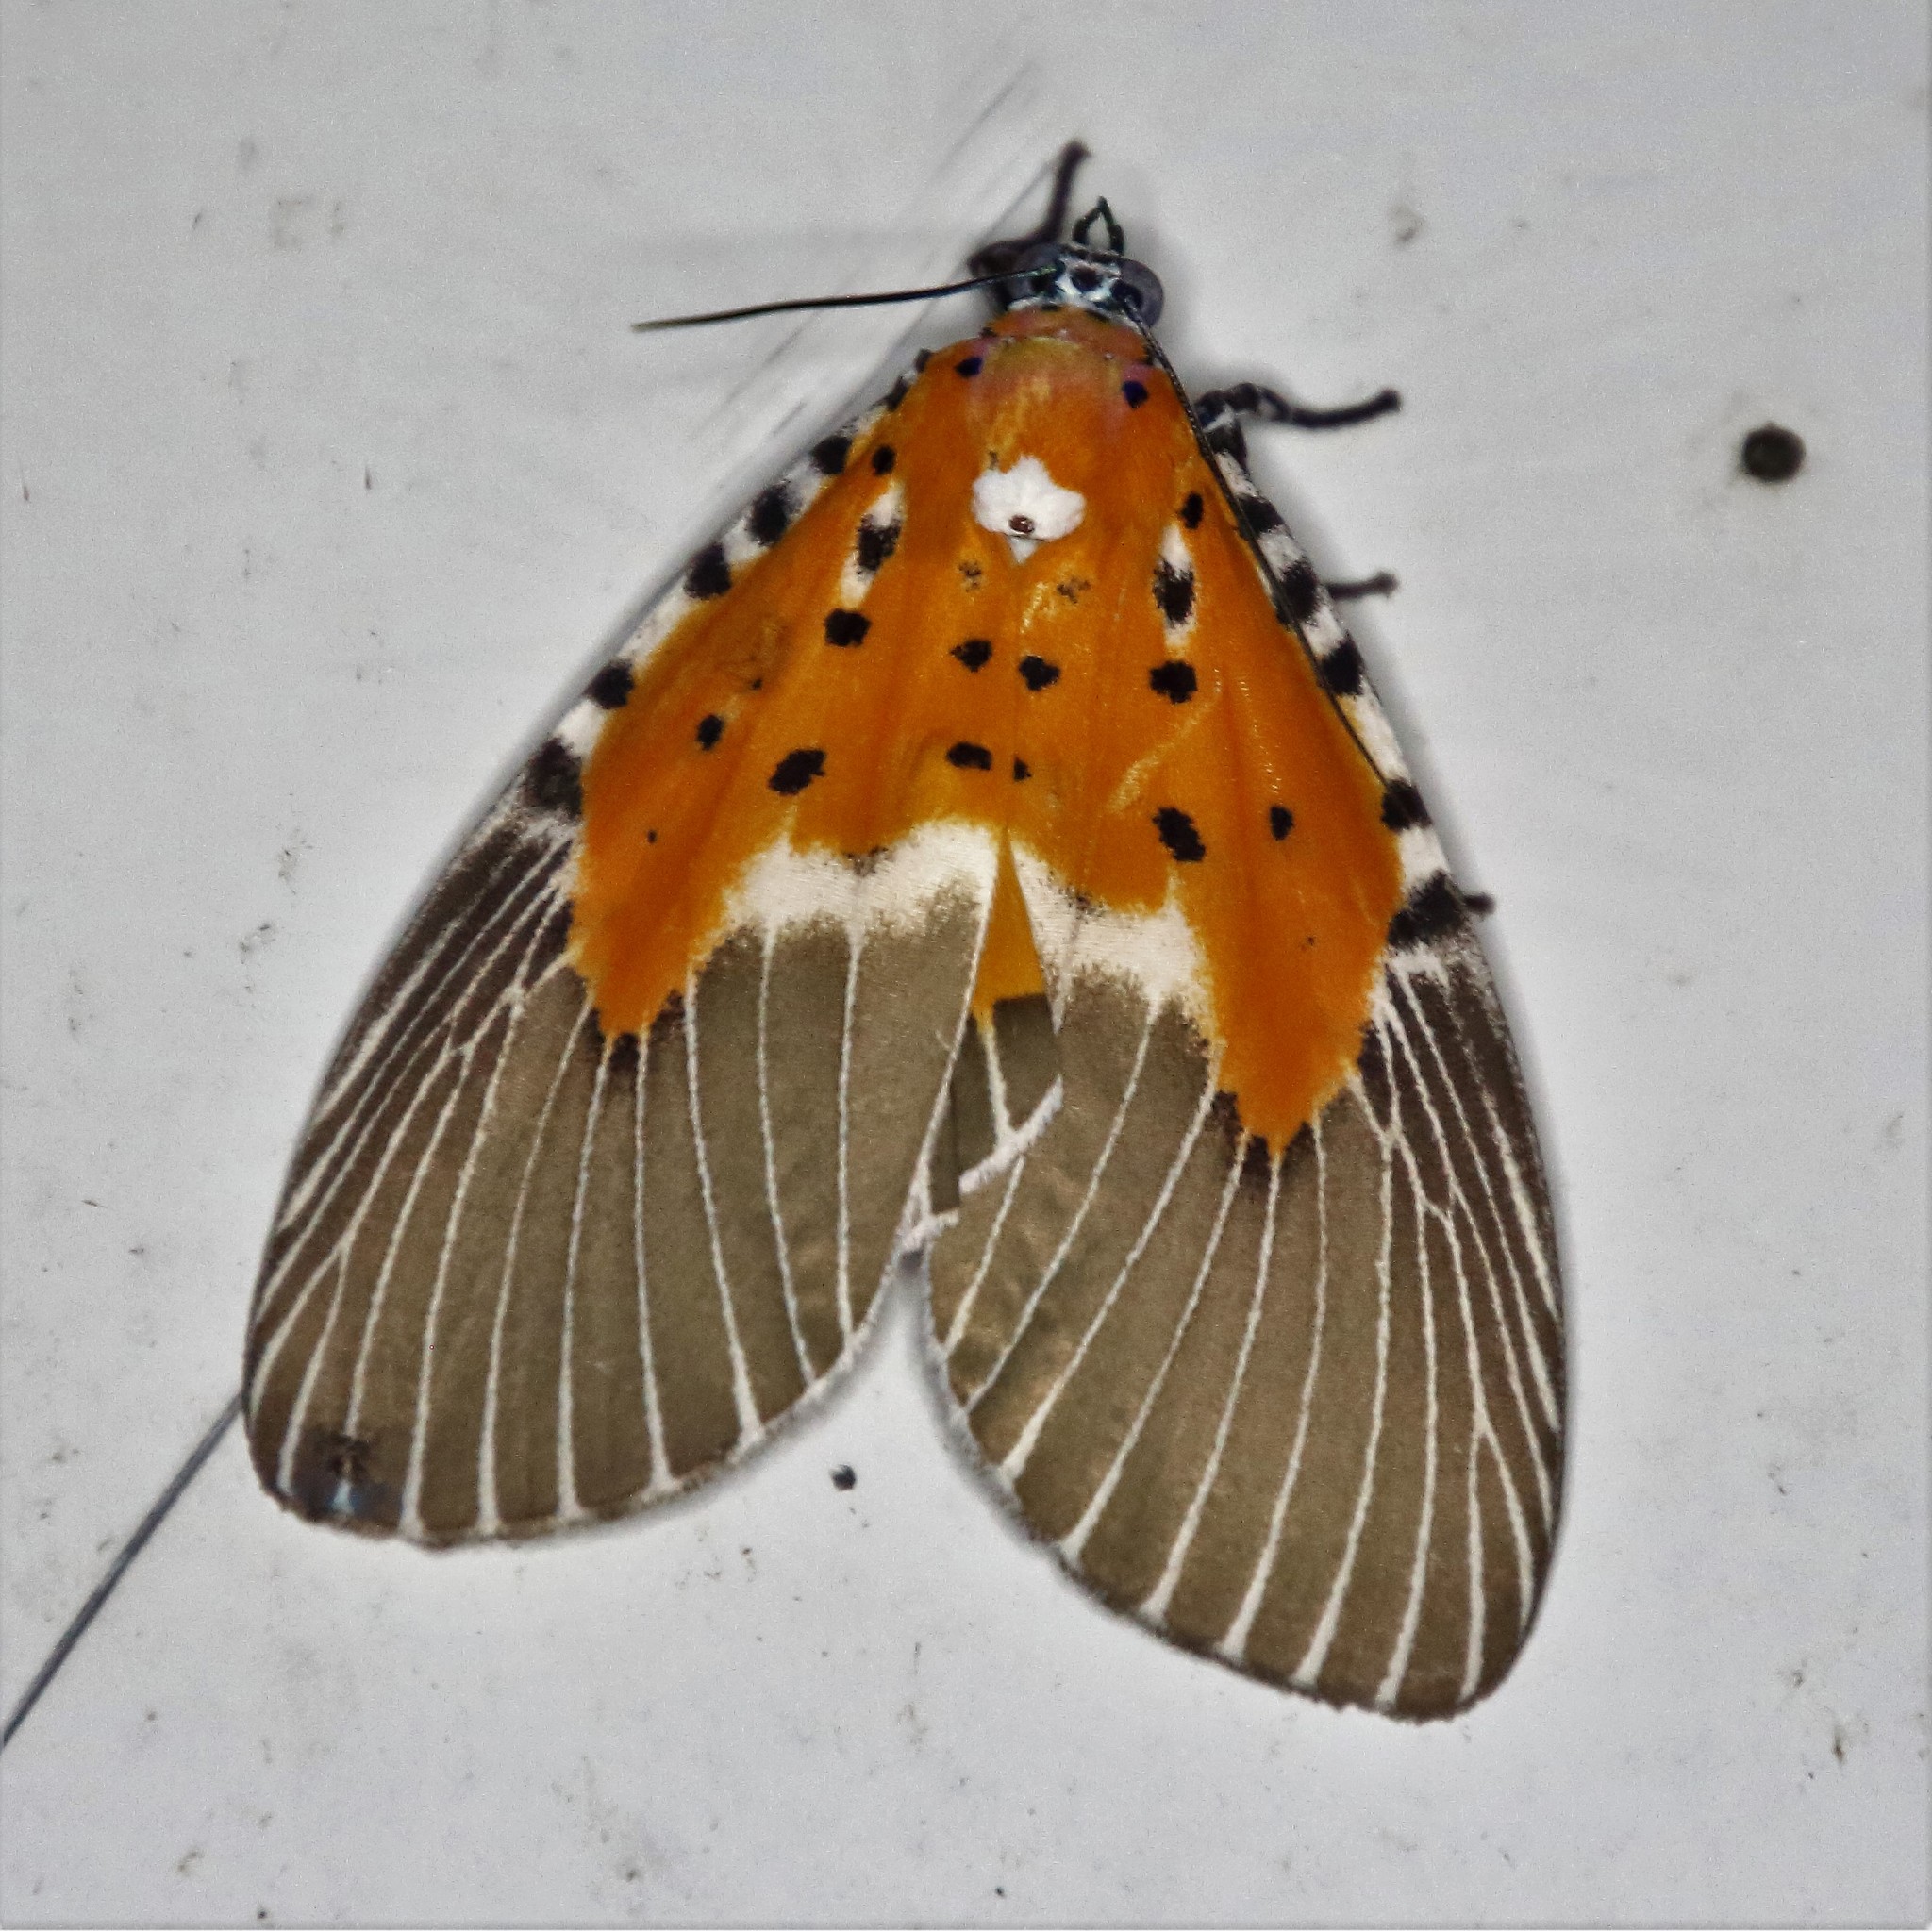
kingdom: Animalia
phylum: Arthropoda
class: Insecta
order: Lepidoptera
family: Erebidae
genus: Peridrome
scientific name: Peridrome subfascia
